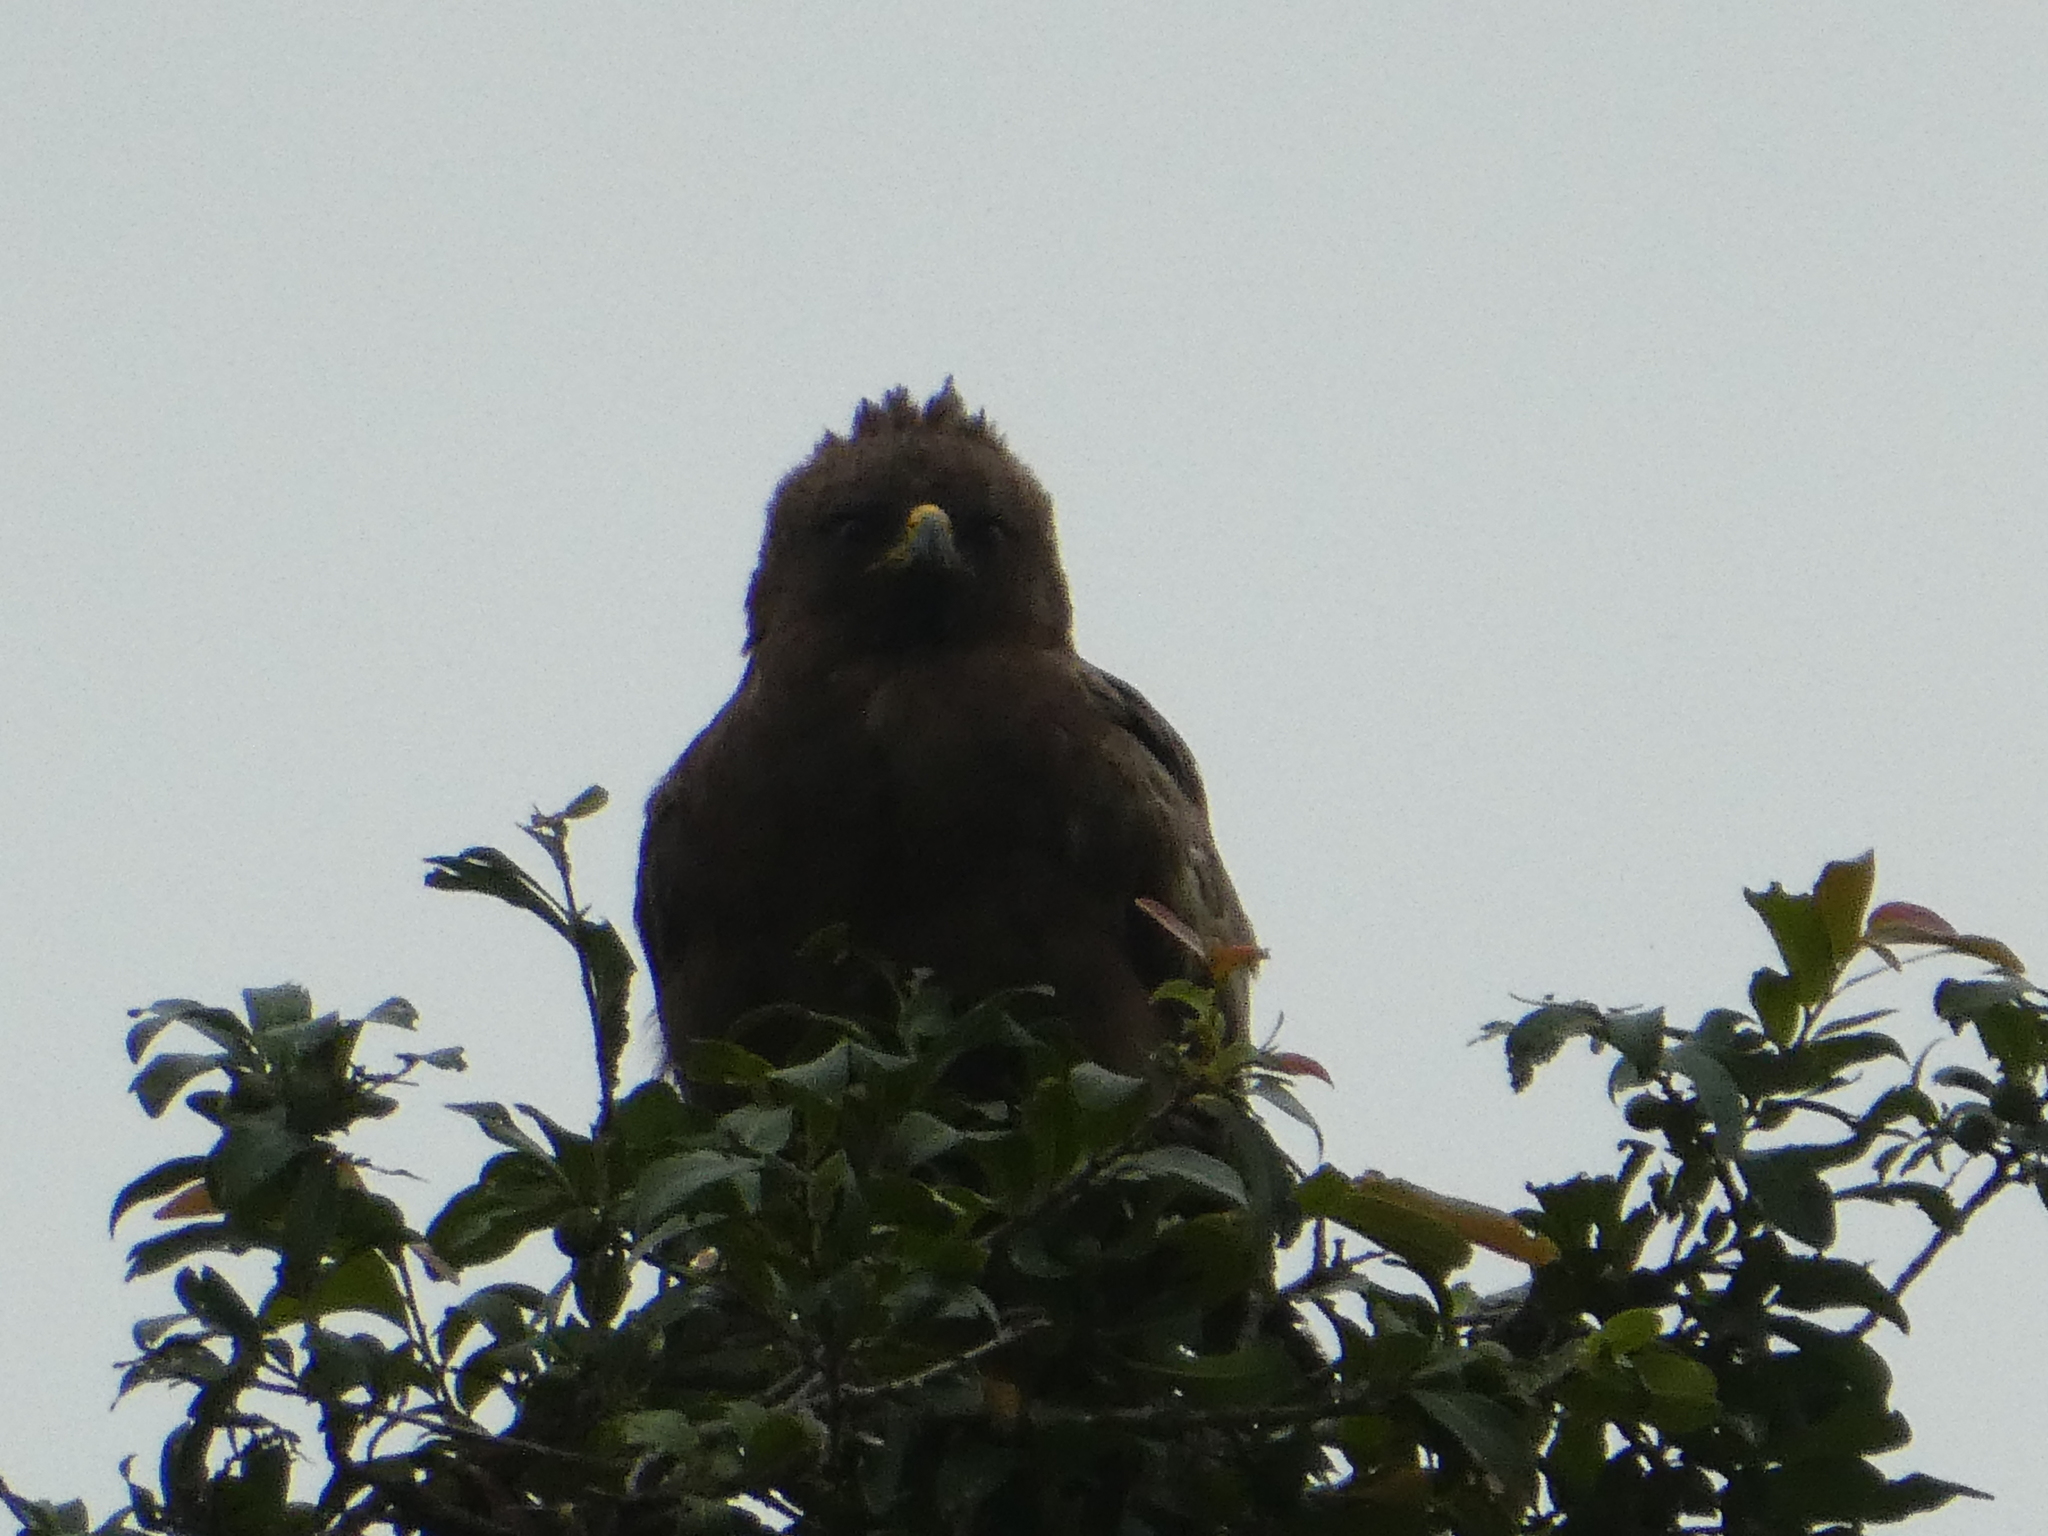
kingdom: Animalia
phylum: Chordata
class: Aves
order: Accipitriformes
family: Accipitridae
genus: Hieraaetus
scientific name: Hieraaetus wahlbergi
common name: Wahlberg's eagle
